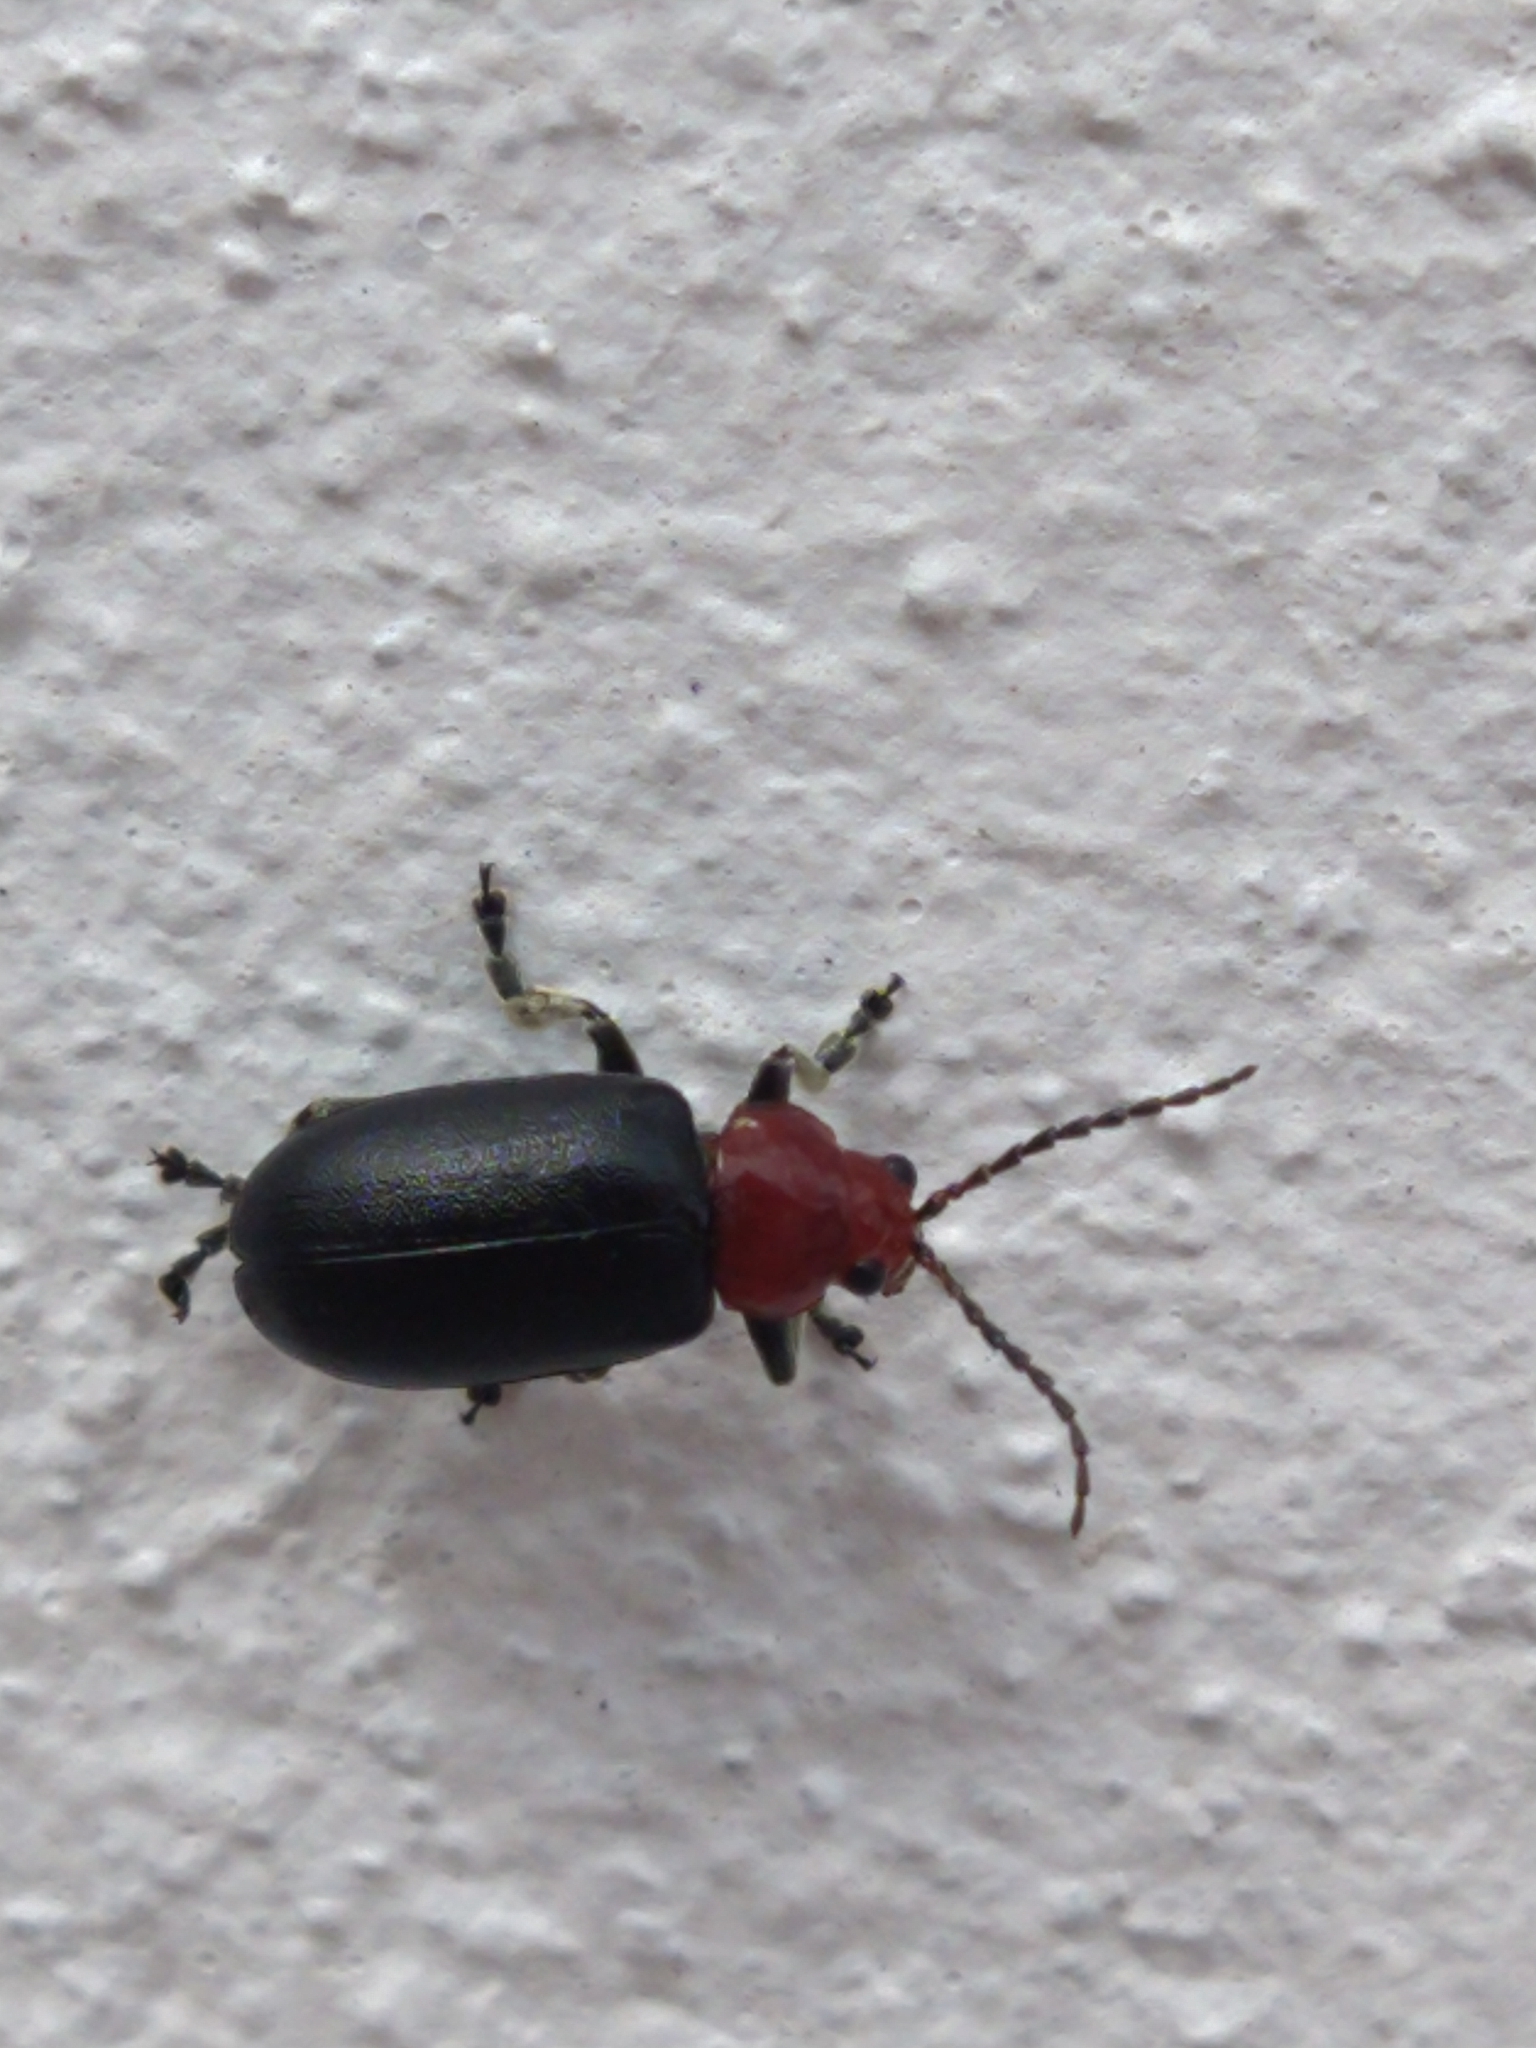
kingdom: Animalia
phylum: Arthropoda
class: Insecta
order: Coleoptera
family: Chrysomelidae
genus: Cacoscelis
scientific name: Cacoscelis
